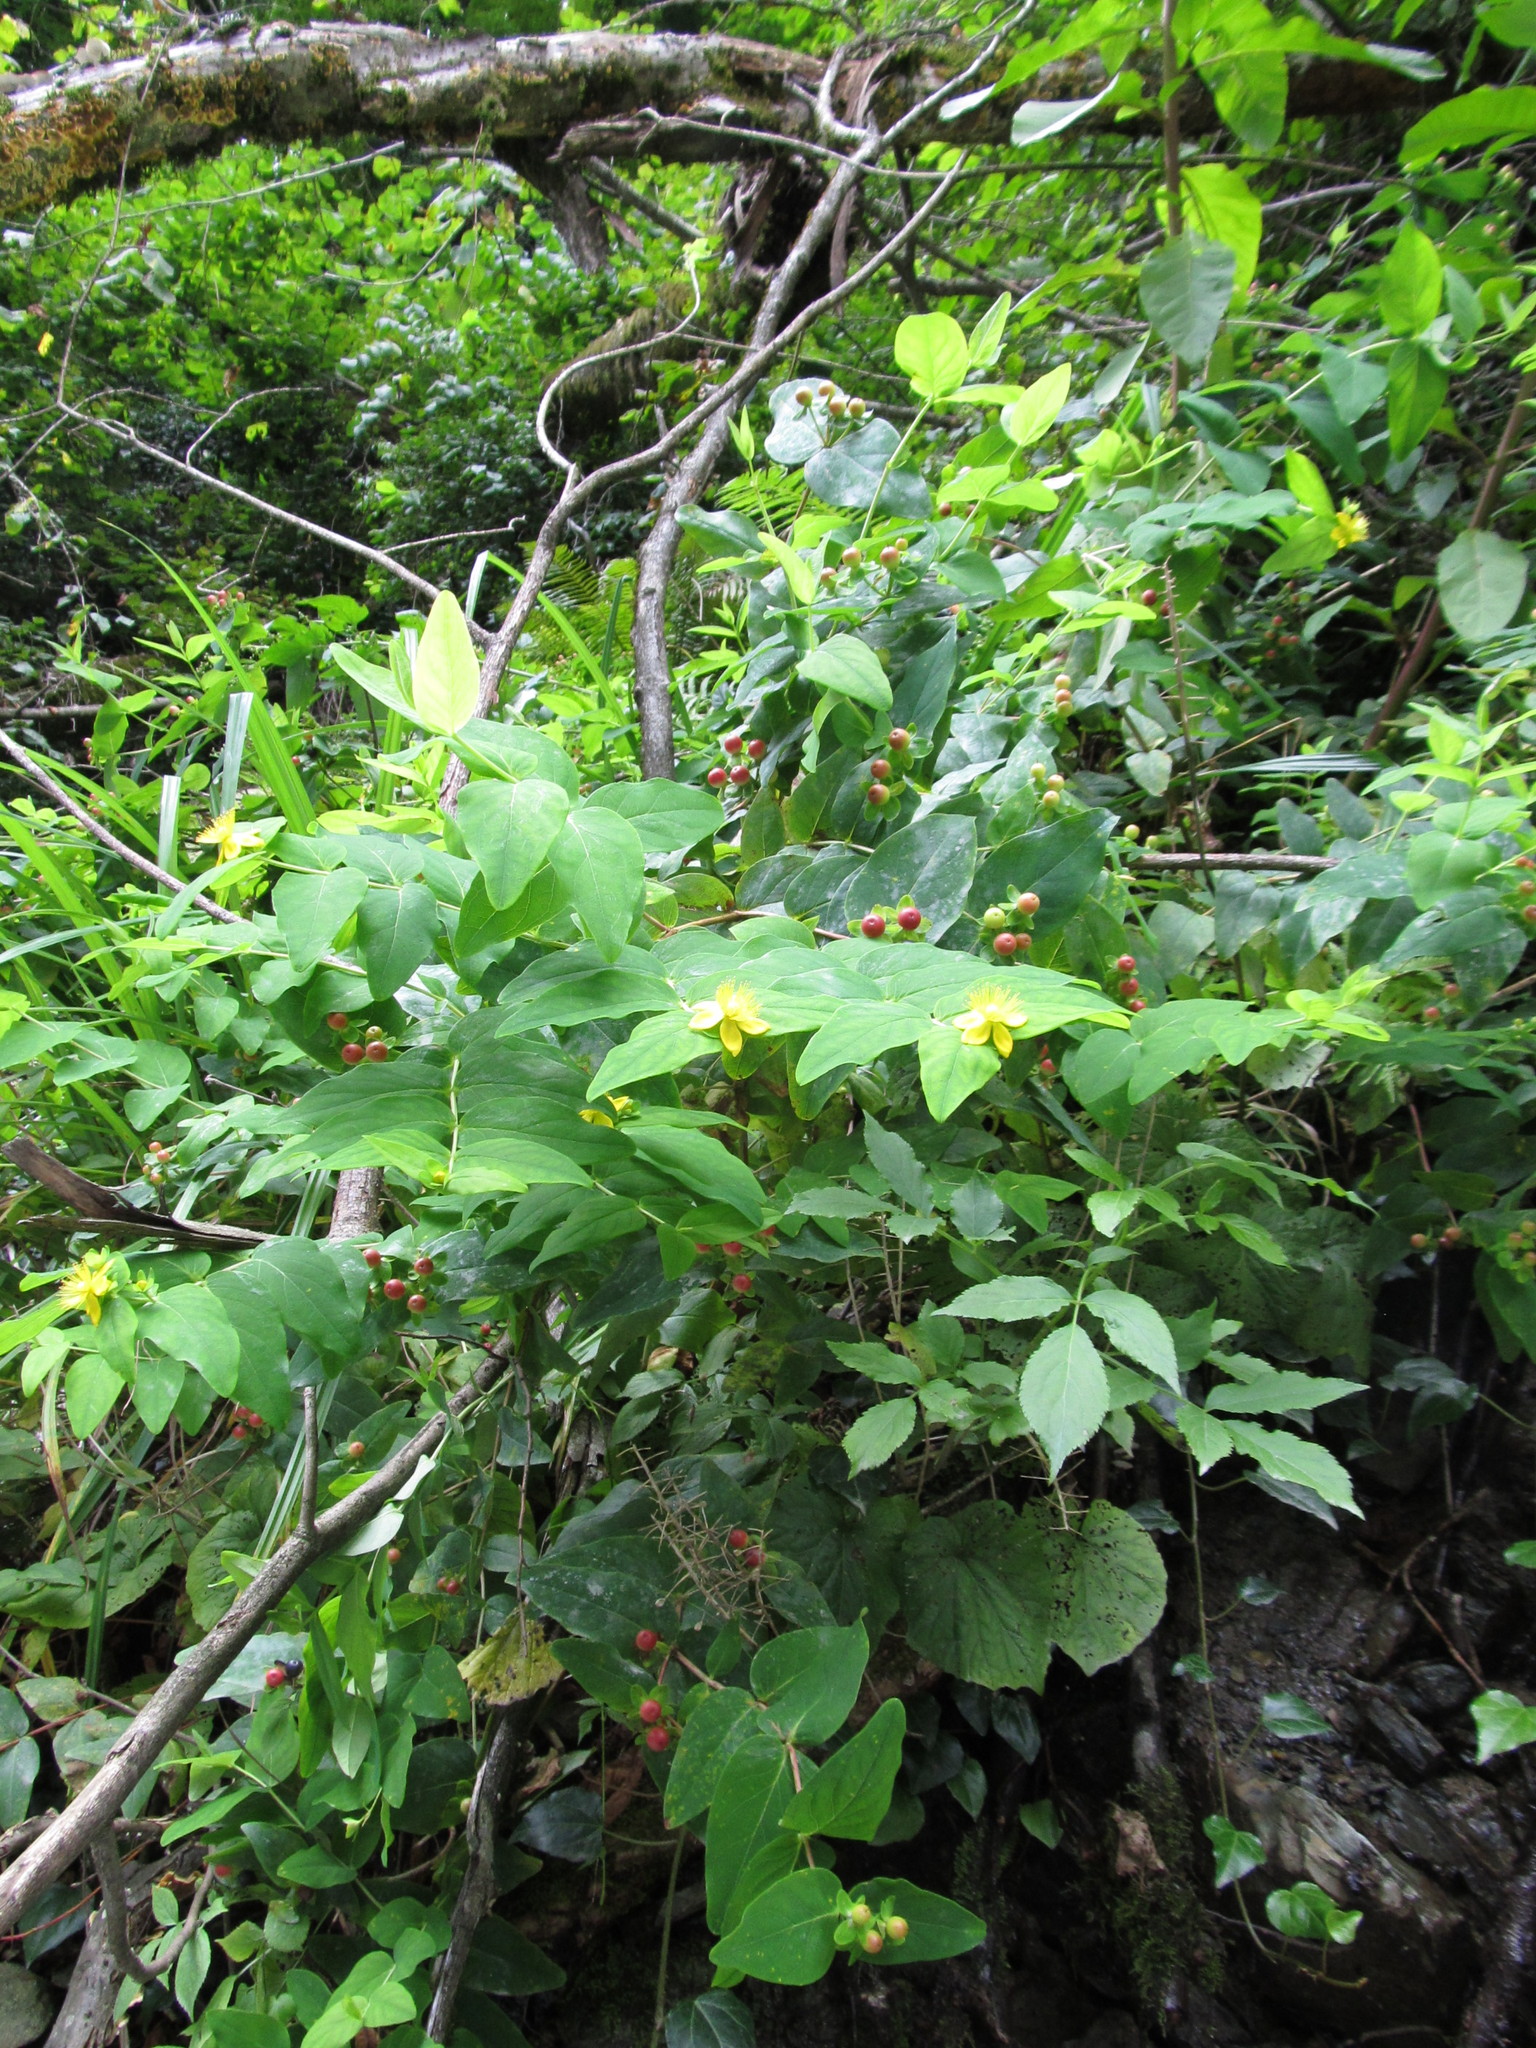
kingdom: Plantae
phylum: Tracheophyta
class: Magnoliopsida
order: Malpighiales
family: Hypericaceae
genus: Hypericum
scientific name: Hypericum androsaemum
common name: Sweet-amber
